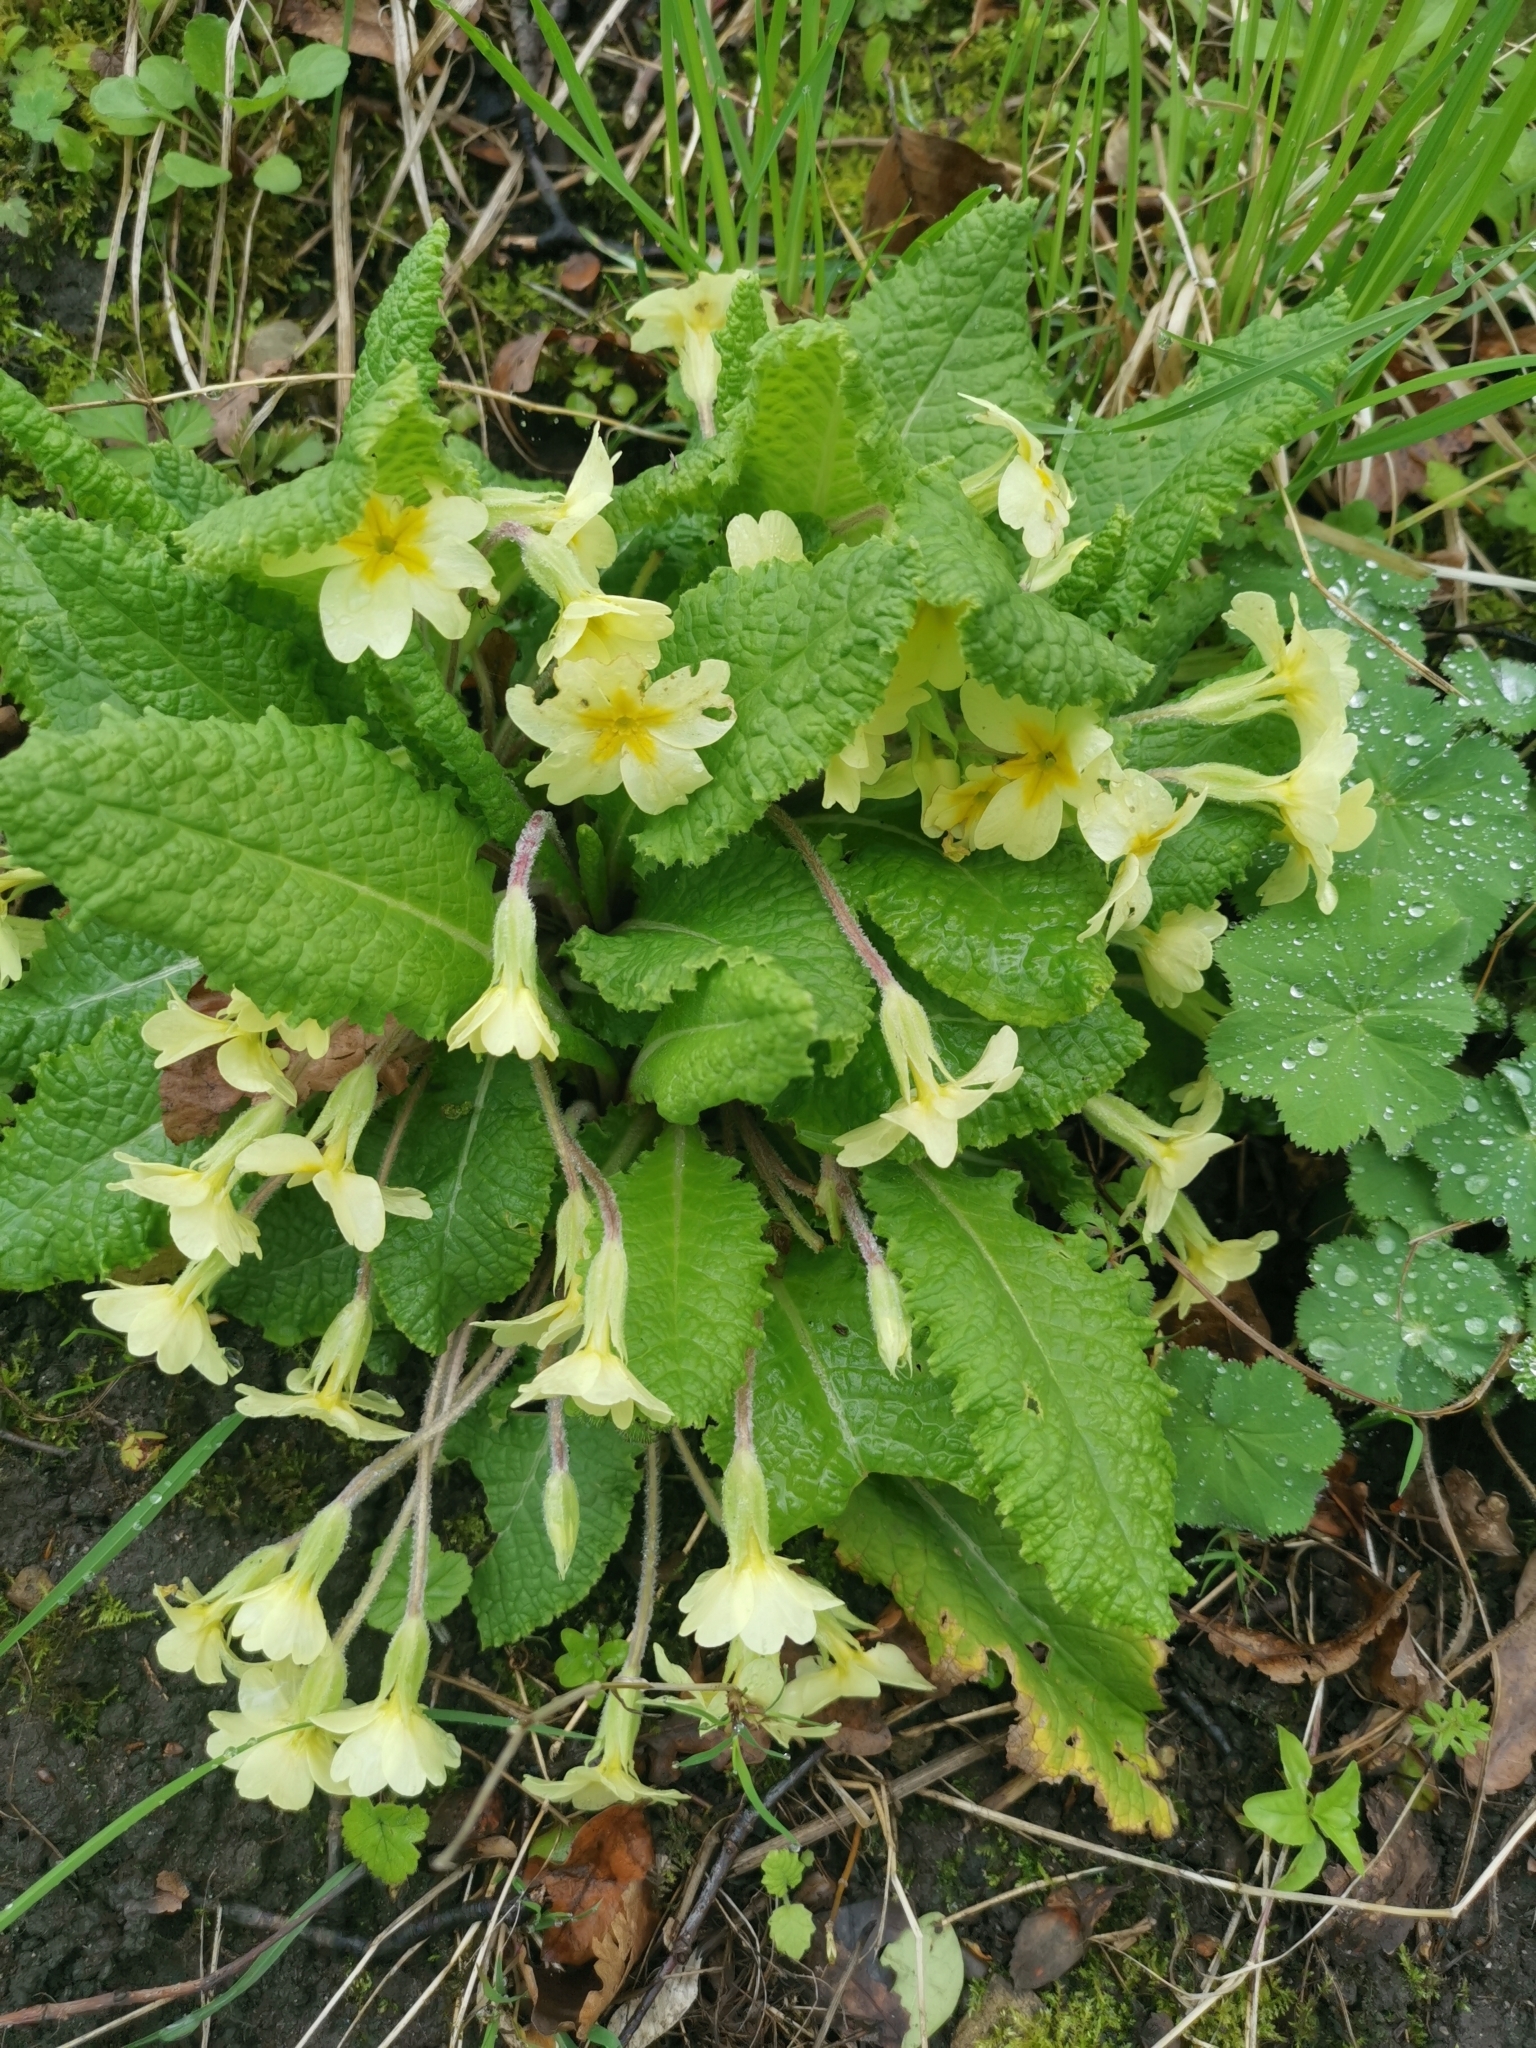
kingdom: Plantae
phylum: Tracheophyta
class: Magnoliopsida
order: Ericales
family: Primulaceae
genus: Primula
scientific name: Primula vulgaris
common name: Primrose
